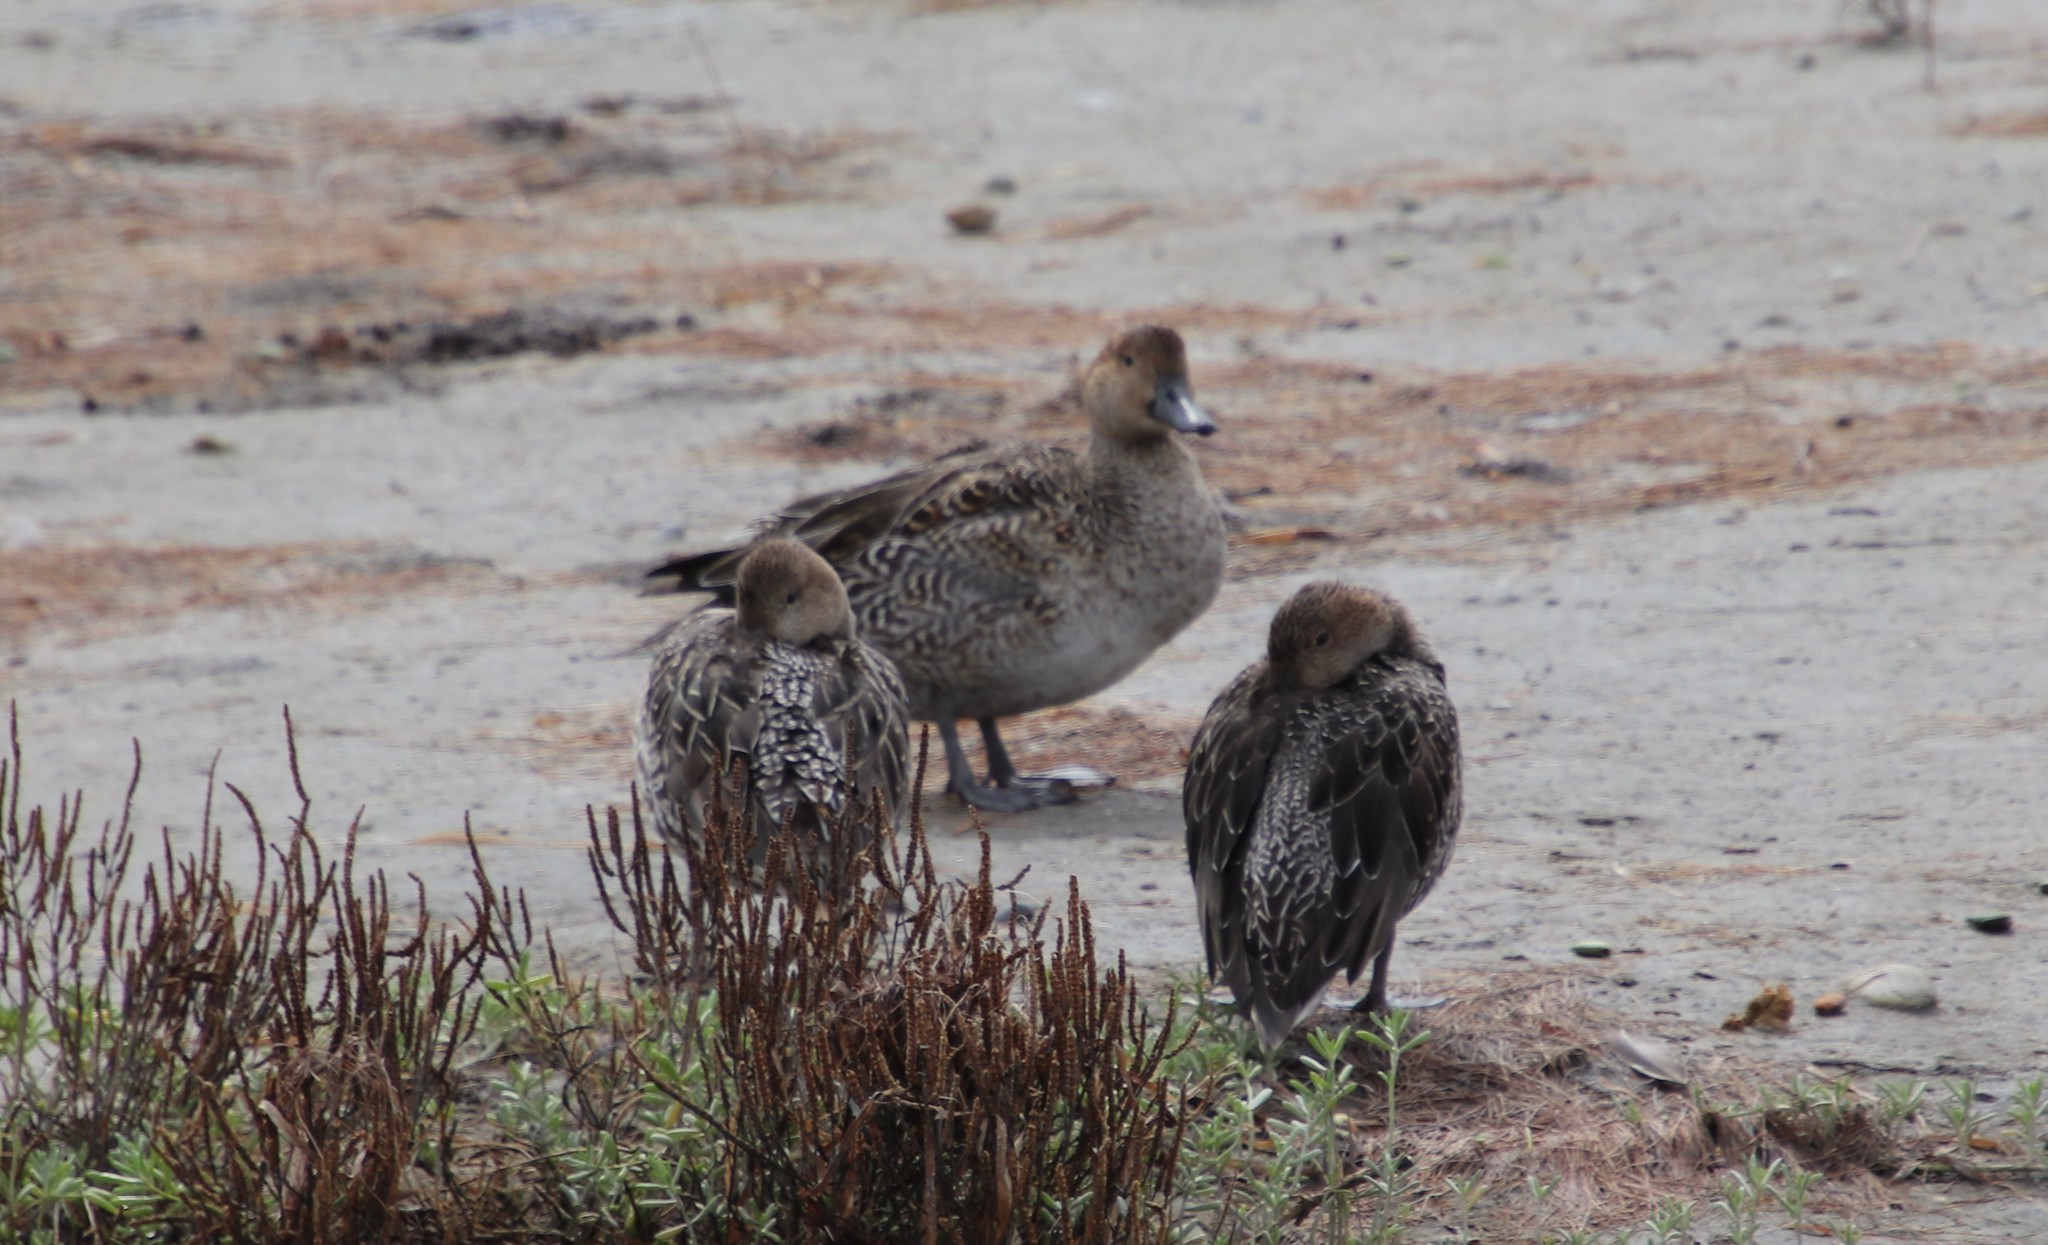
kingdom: Animalia
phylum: Chordata
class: Aves
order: Anseriformes
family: Anatidae
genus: Mareca
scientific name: Mareca strepera
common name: Gadwall
